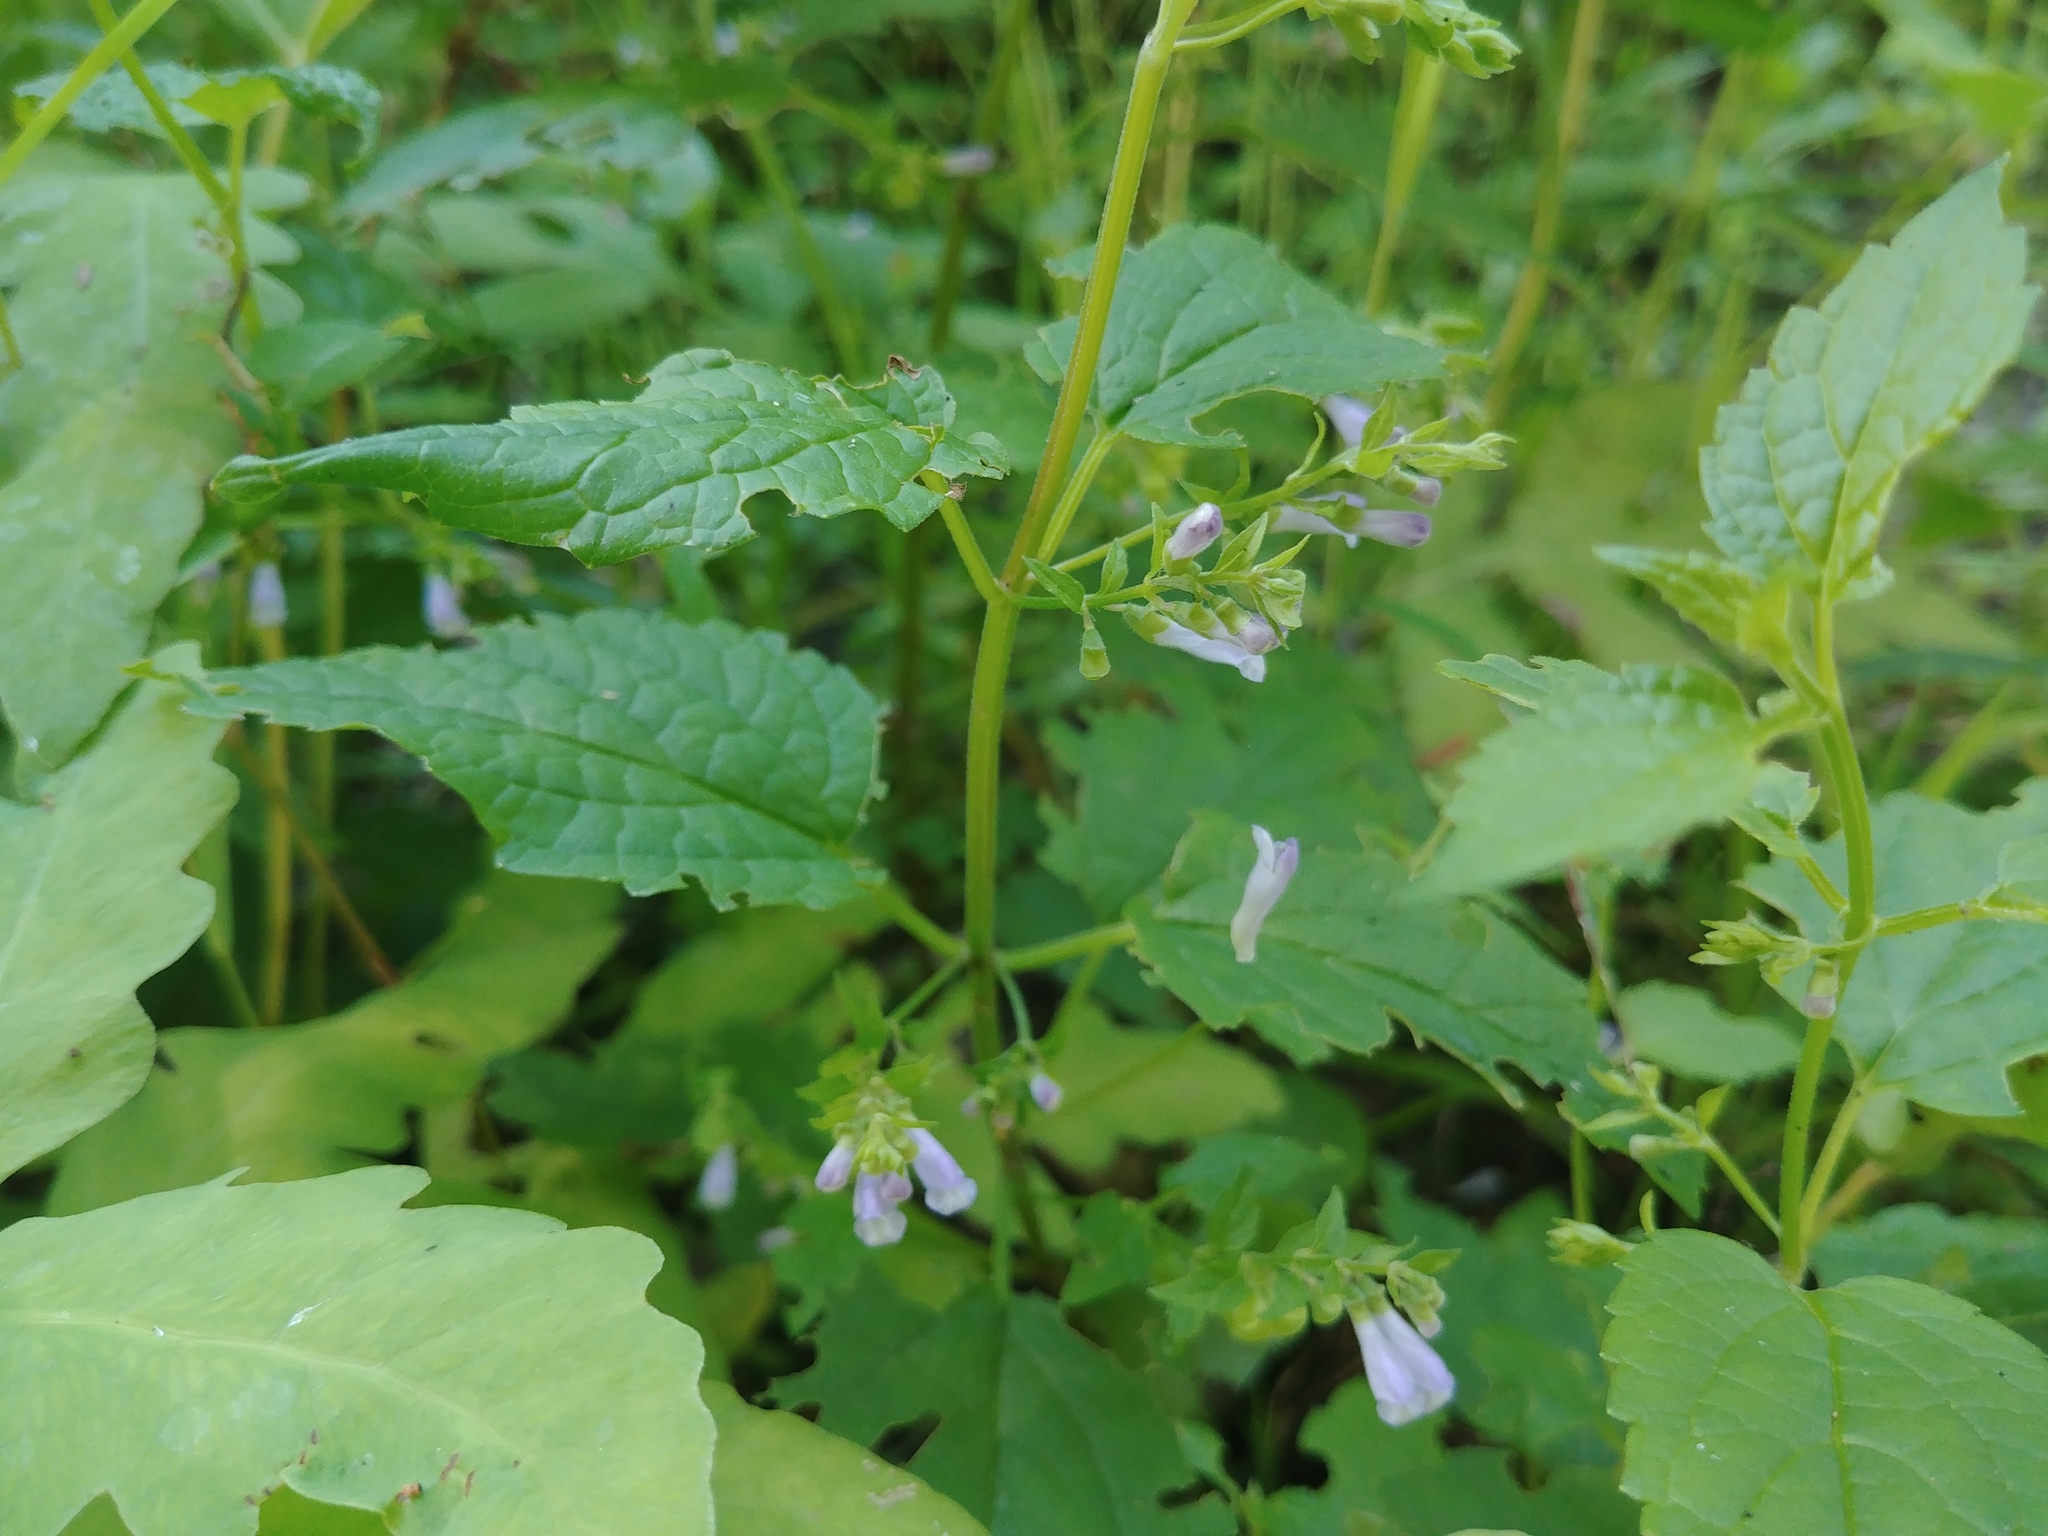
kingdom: Plantae
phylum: Tracheophyta
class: Magnoliopsida
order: Lamiales
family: Lamiaceae
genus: Scutellaria
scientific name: Scutellaria lateriflora
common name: Blue skullcap
